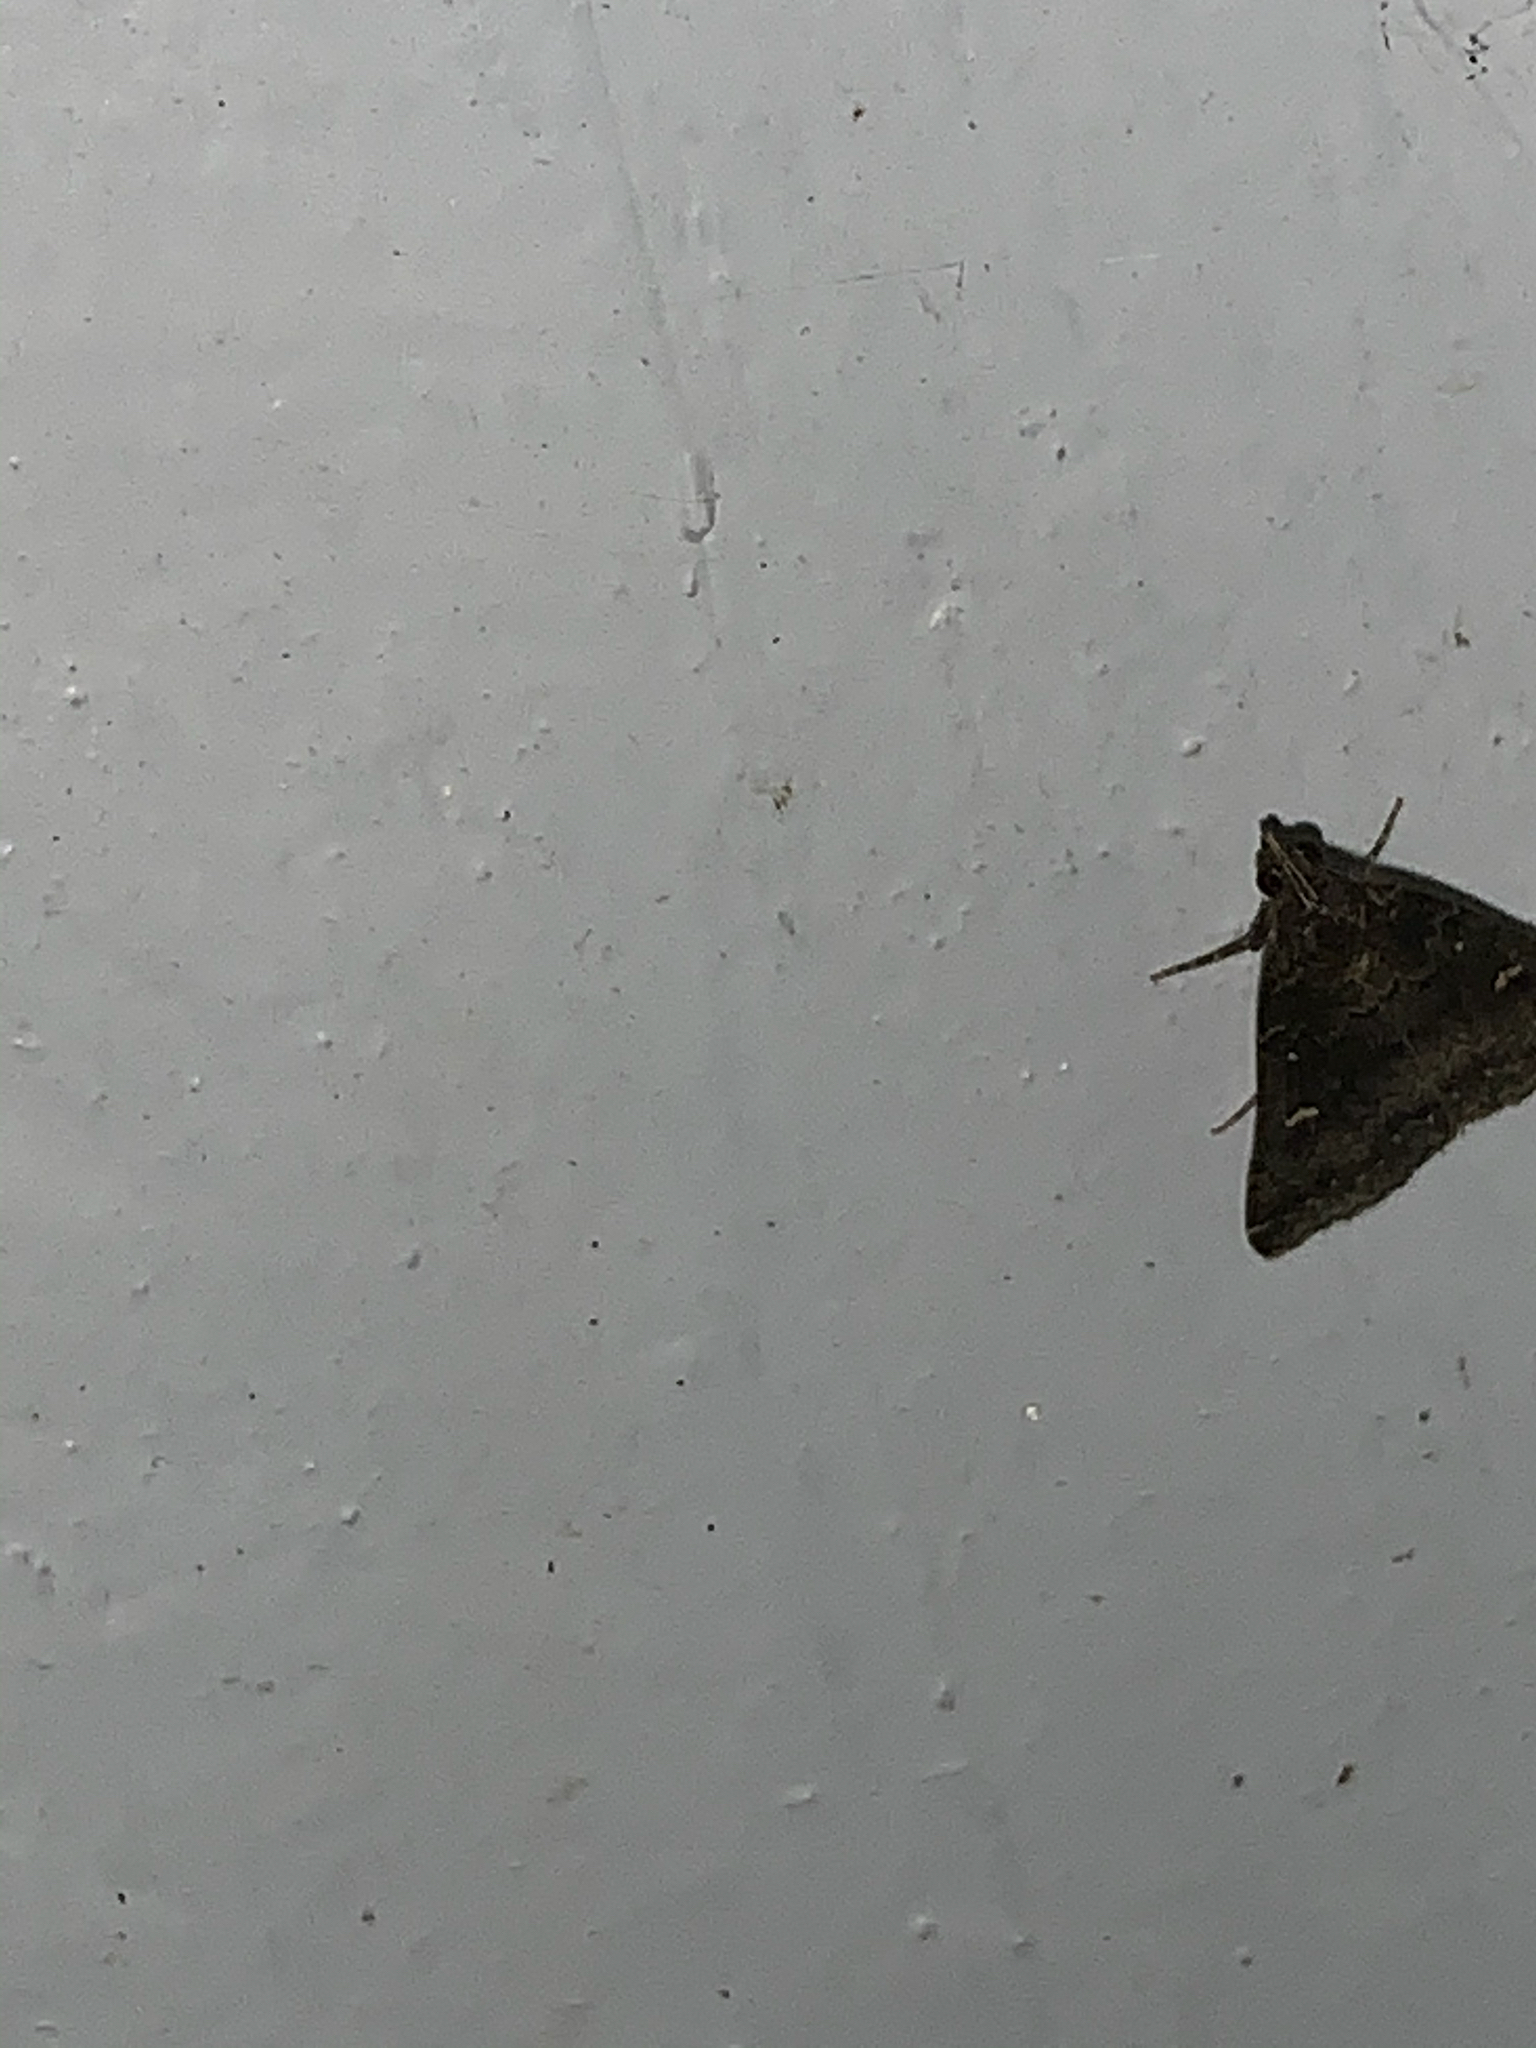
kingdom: Animalia
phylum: Arthropoda
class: Insecta
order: Lepidoptera
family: Erebidae
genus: Tetanolita
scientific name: Tetanolita mynesalis
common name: Smoky tetanolita moth
